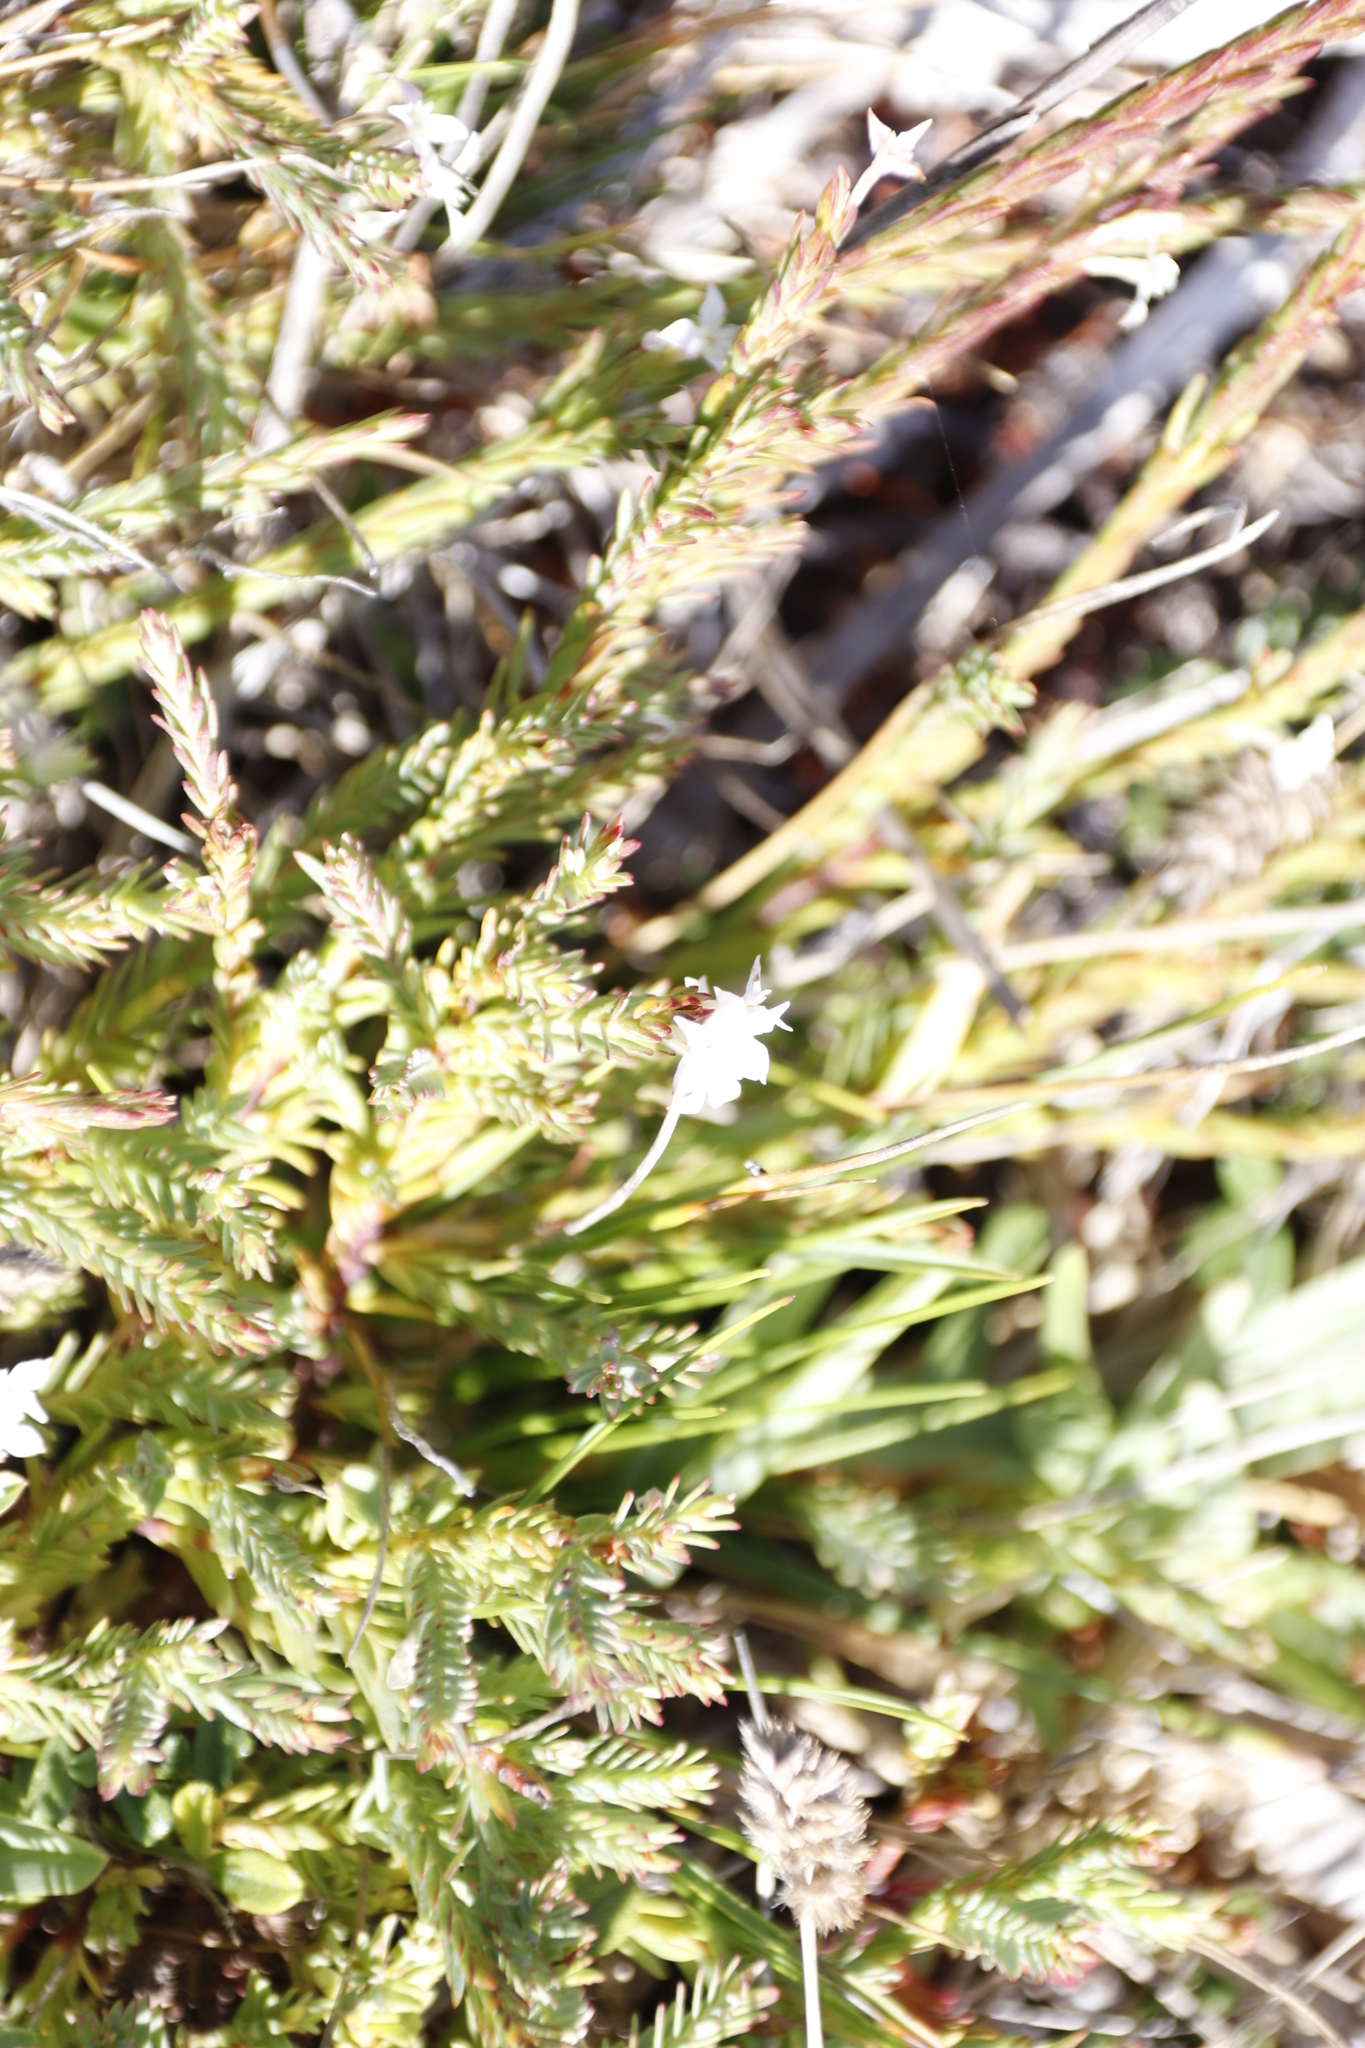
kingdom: Plantae
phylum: Tracheophyta
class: Magnoliopsida
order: Malvales
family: Thymelaeaceae
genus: Struthiola
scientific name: Struthiola dodecandra
